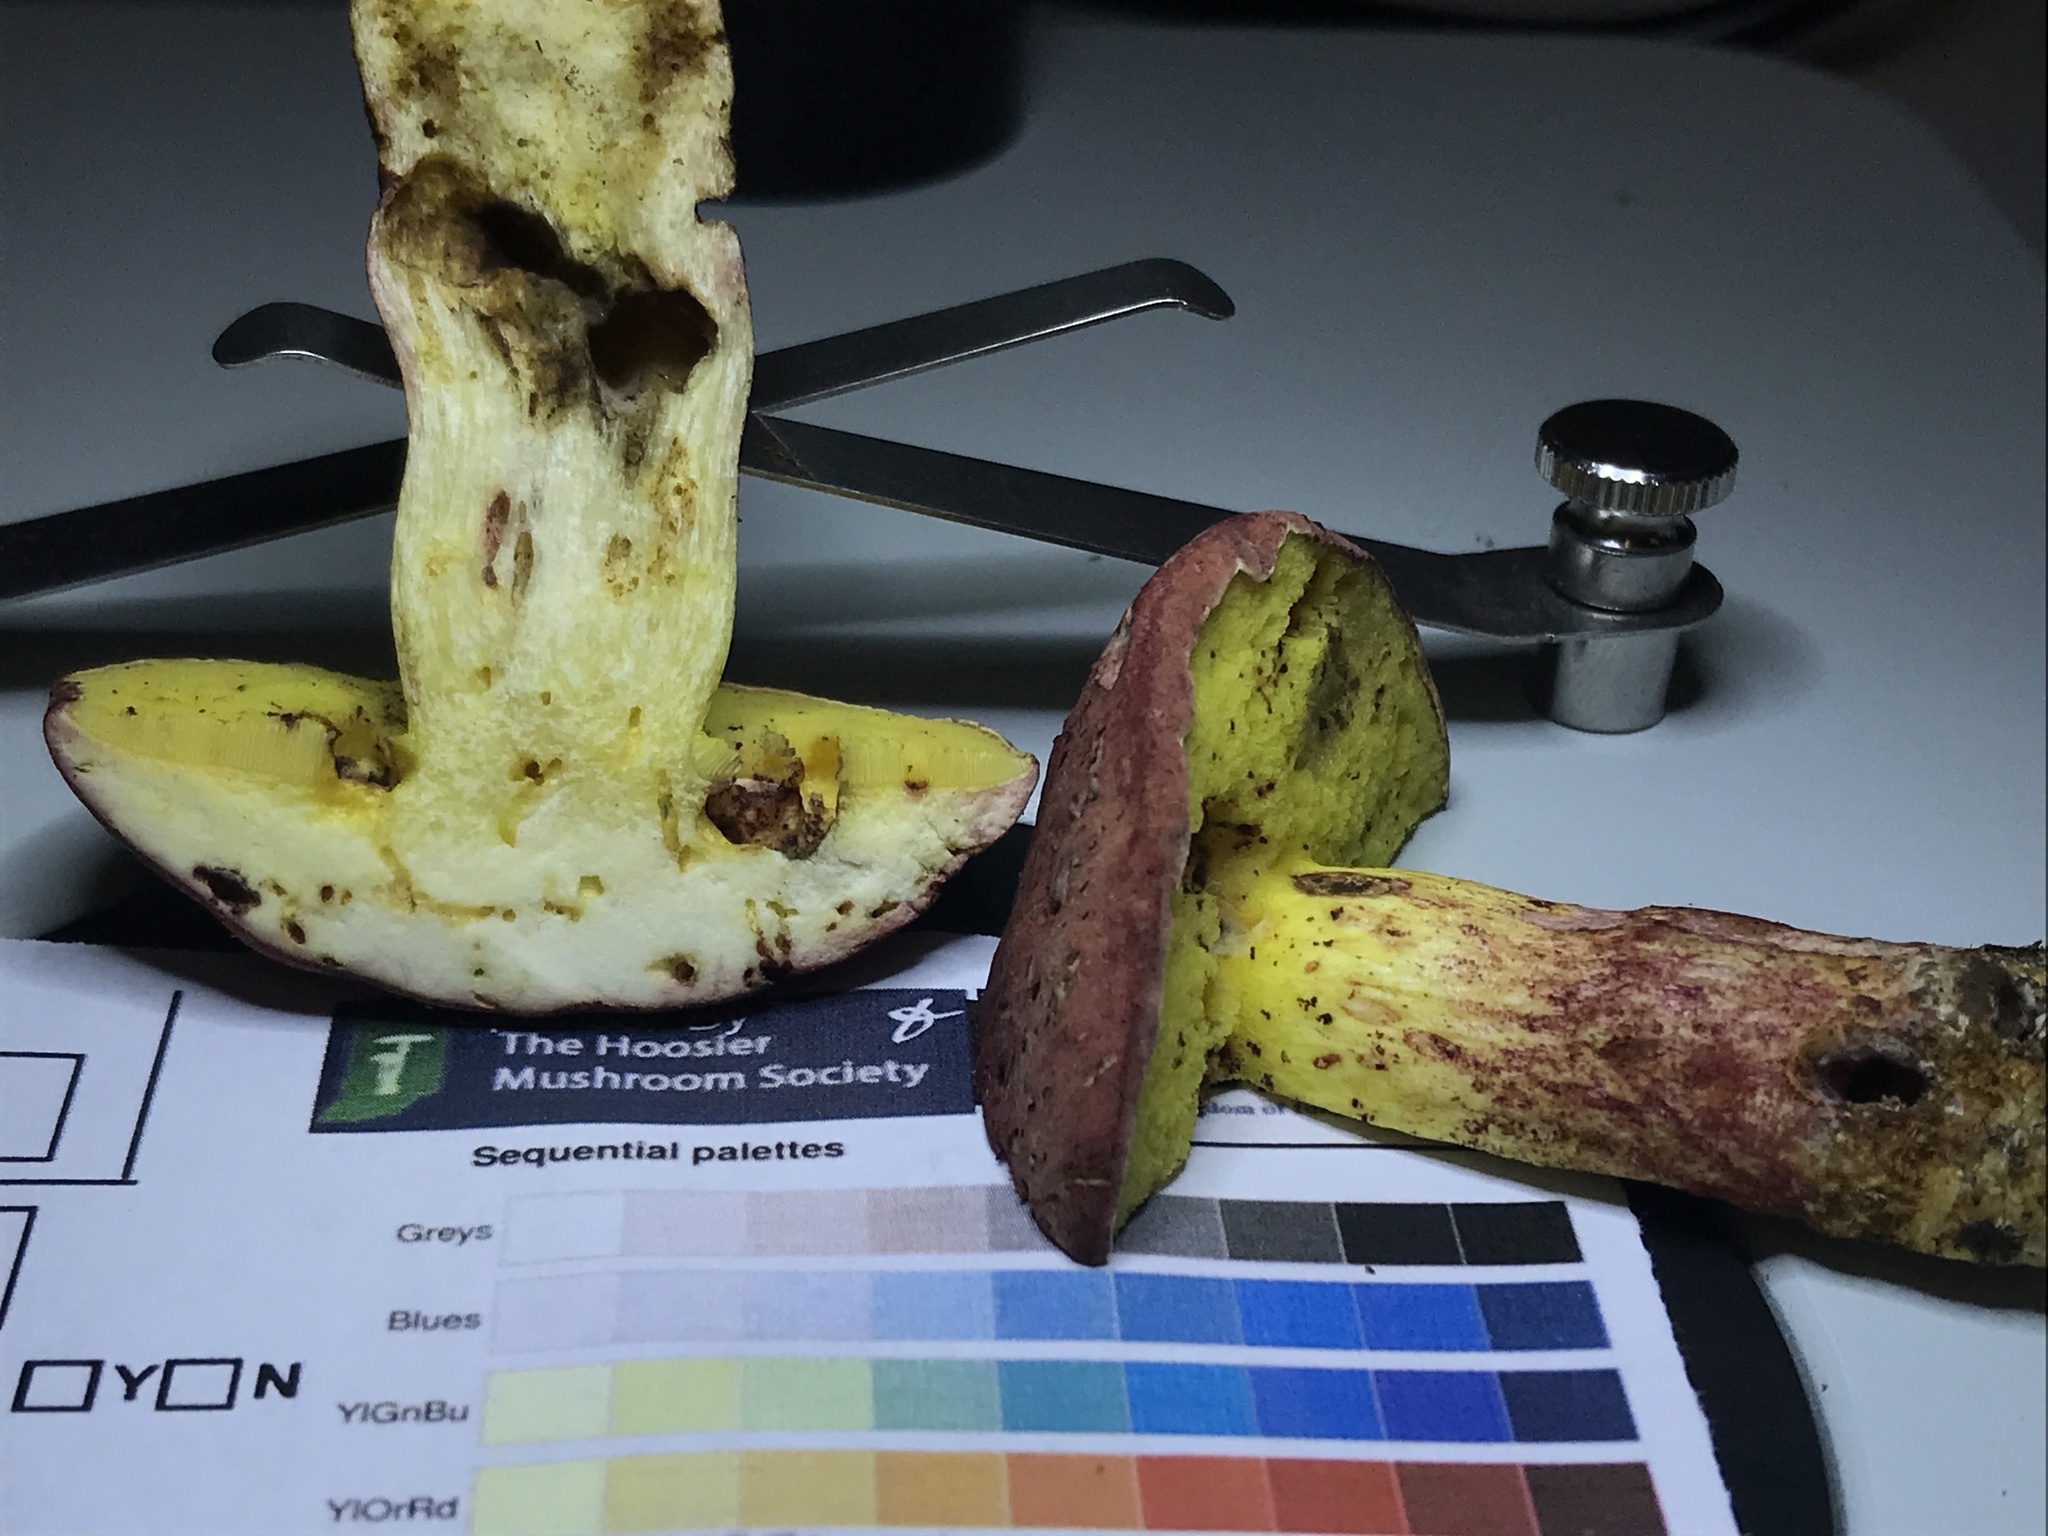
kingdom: Fungi
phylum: Basidiomycota
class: Agaricomycetes
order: Boletales
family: Boletaceae
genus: Boletus
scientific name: Boletus roodyi
